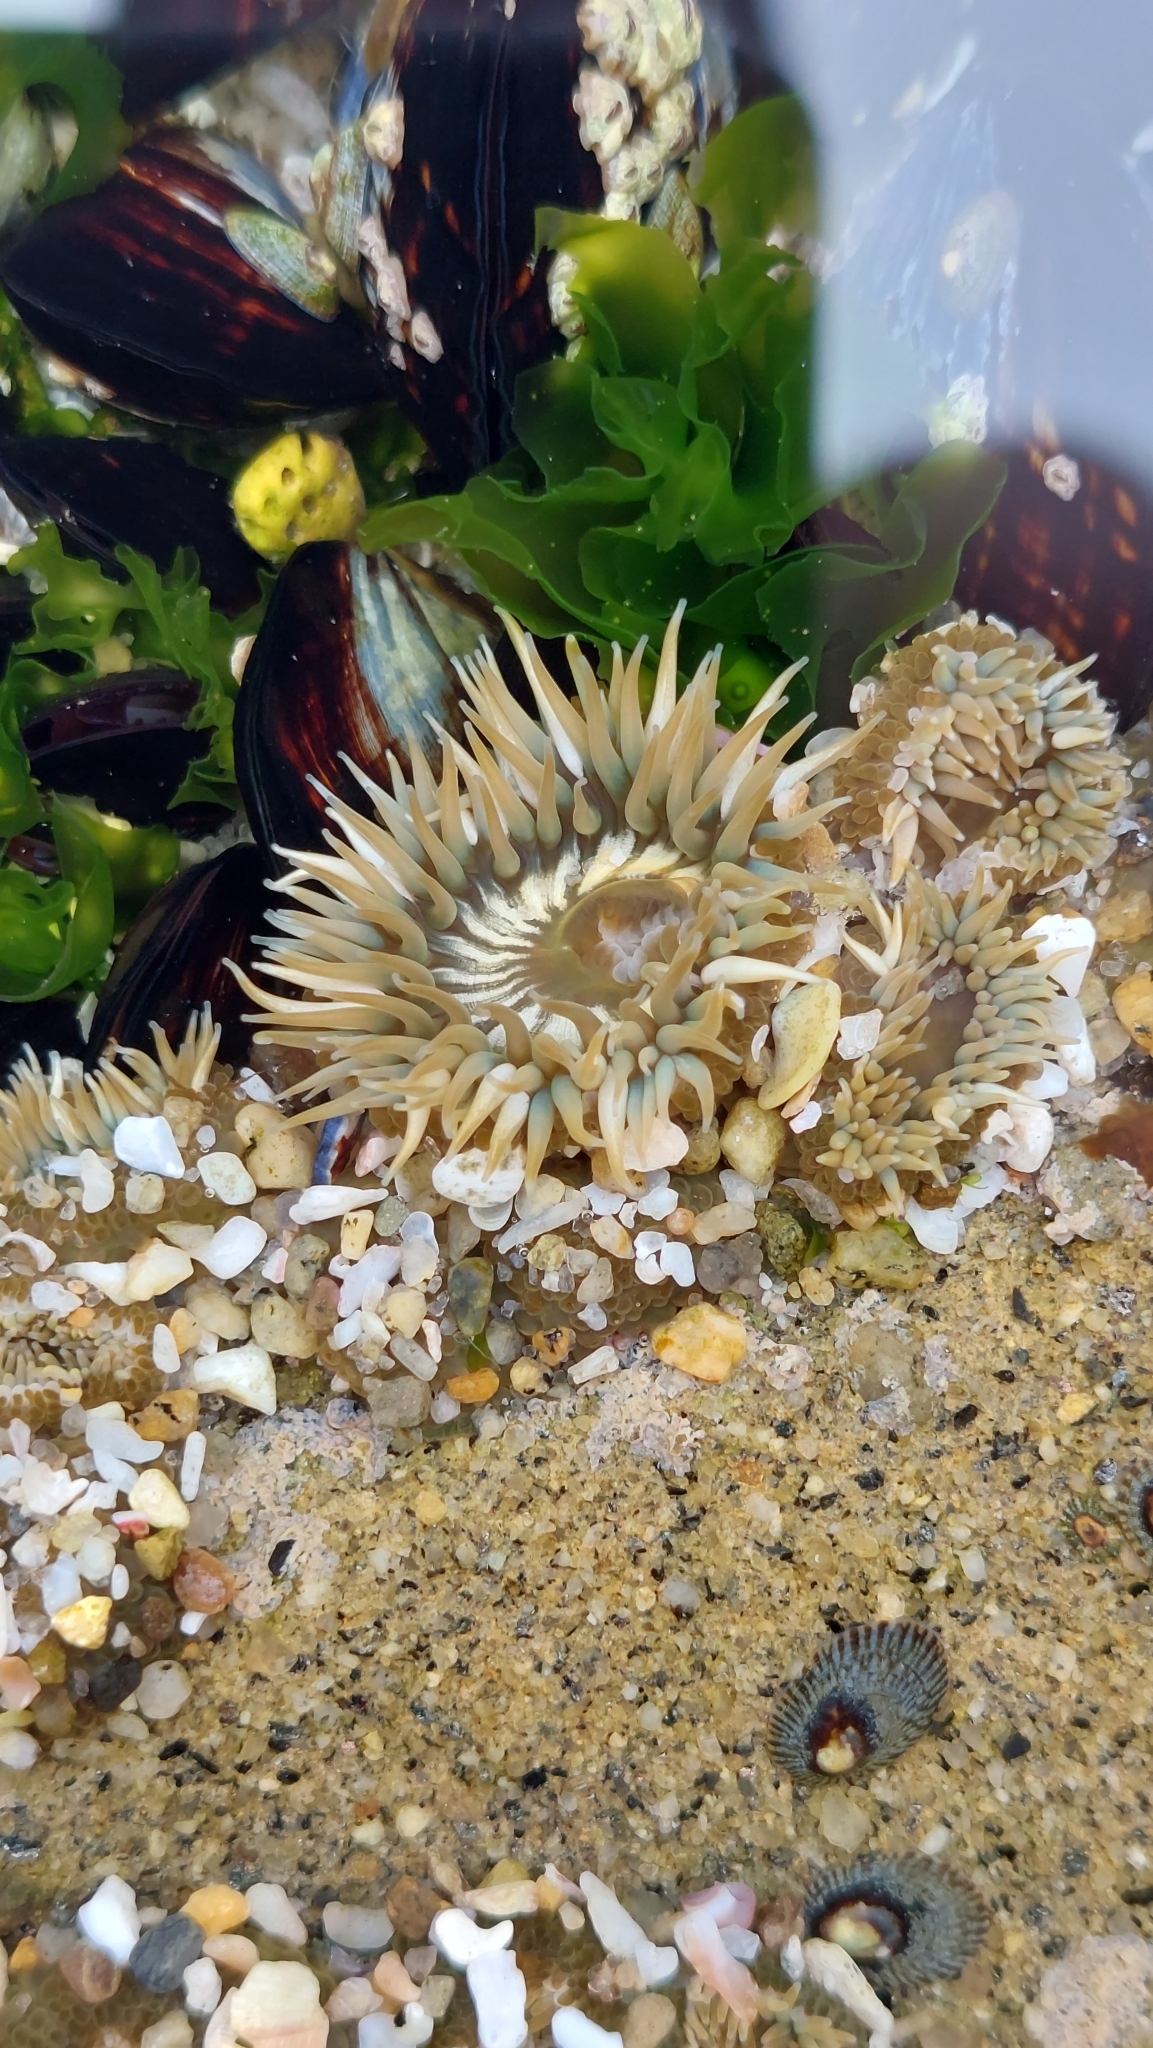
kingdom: Animalia
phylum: Cnidaria
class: Anthozoa
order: Actiniaria
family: Actiniidae
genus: Anthopleura
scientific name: Anthopleura elegantissima
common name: Clonal anemone
